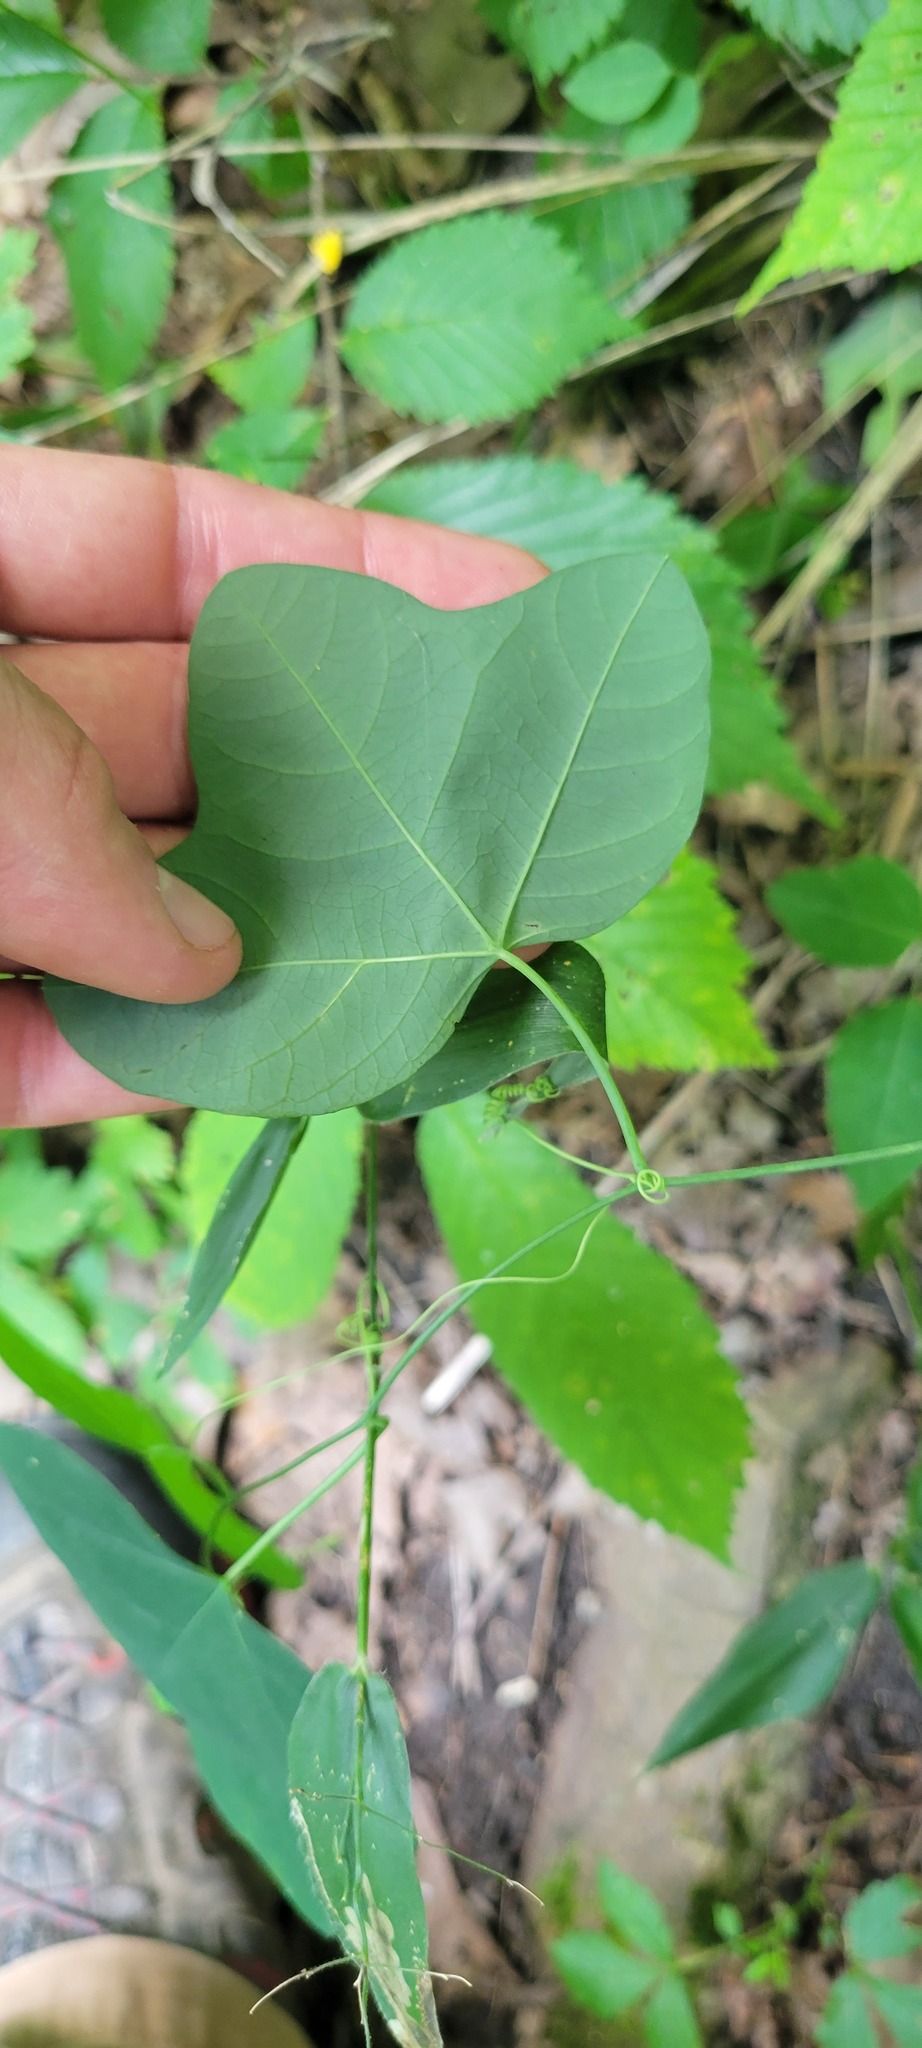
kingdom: Plantae
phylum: Tracheophyta
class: Magnoliopsida
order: Malpighiales
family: Passifloraceae
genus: Passiflora
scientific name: Passiflora lutea
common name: Yellow passionflower
